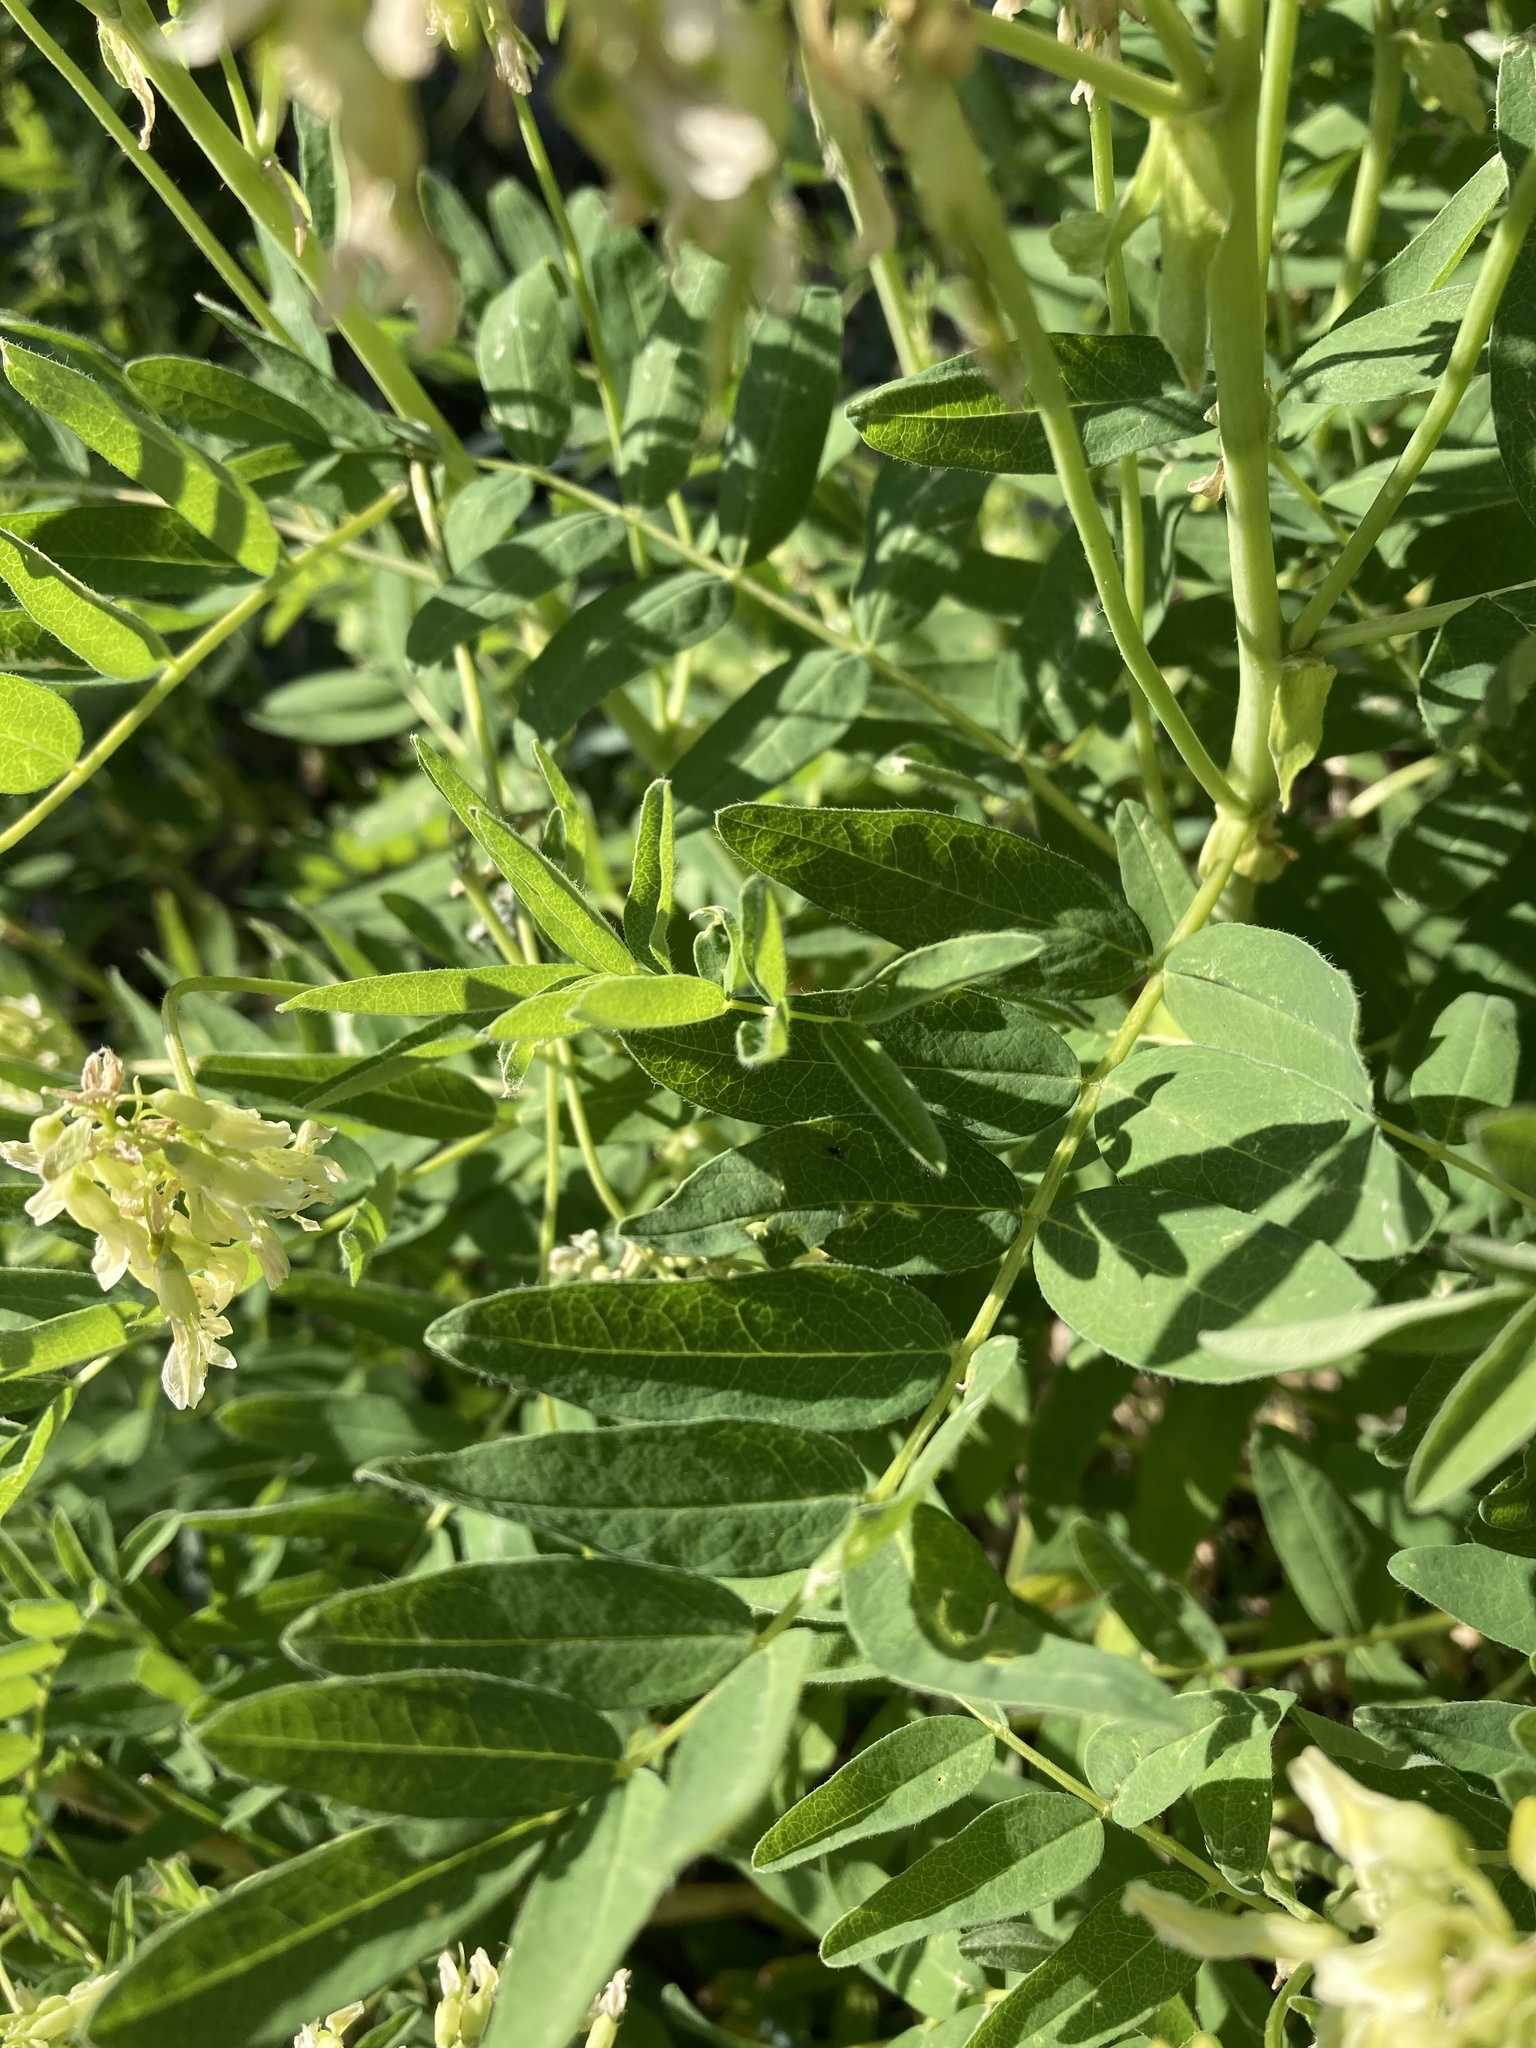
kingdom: Plantae
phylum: Tracheophyta
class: Magnoliopsida
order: Fabales
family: Fabaceae
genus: Astragalus
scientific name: Astragalus americanus
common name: American milk-vetch
